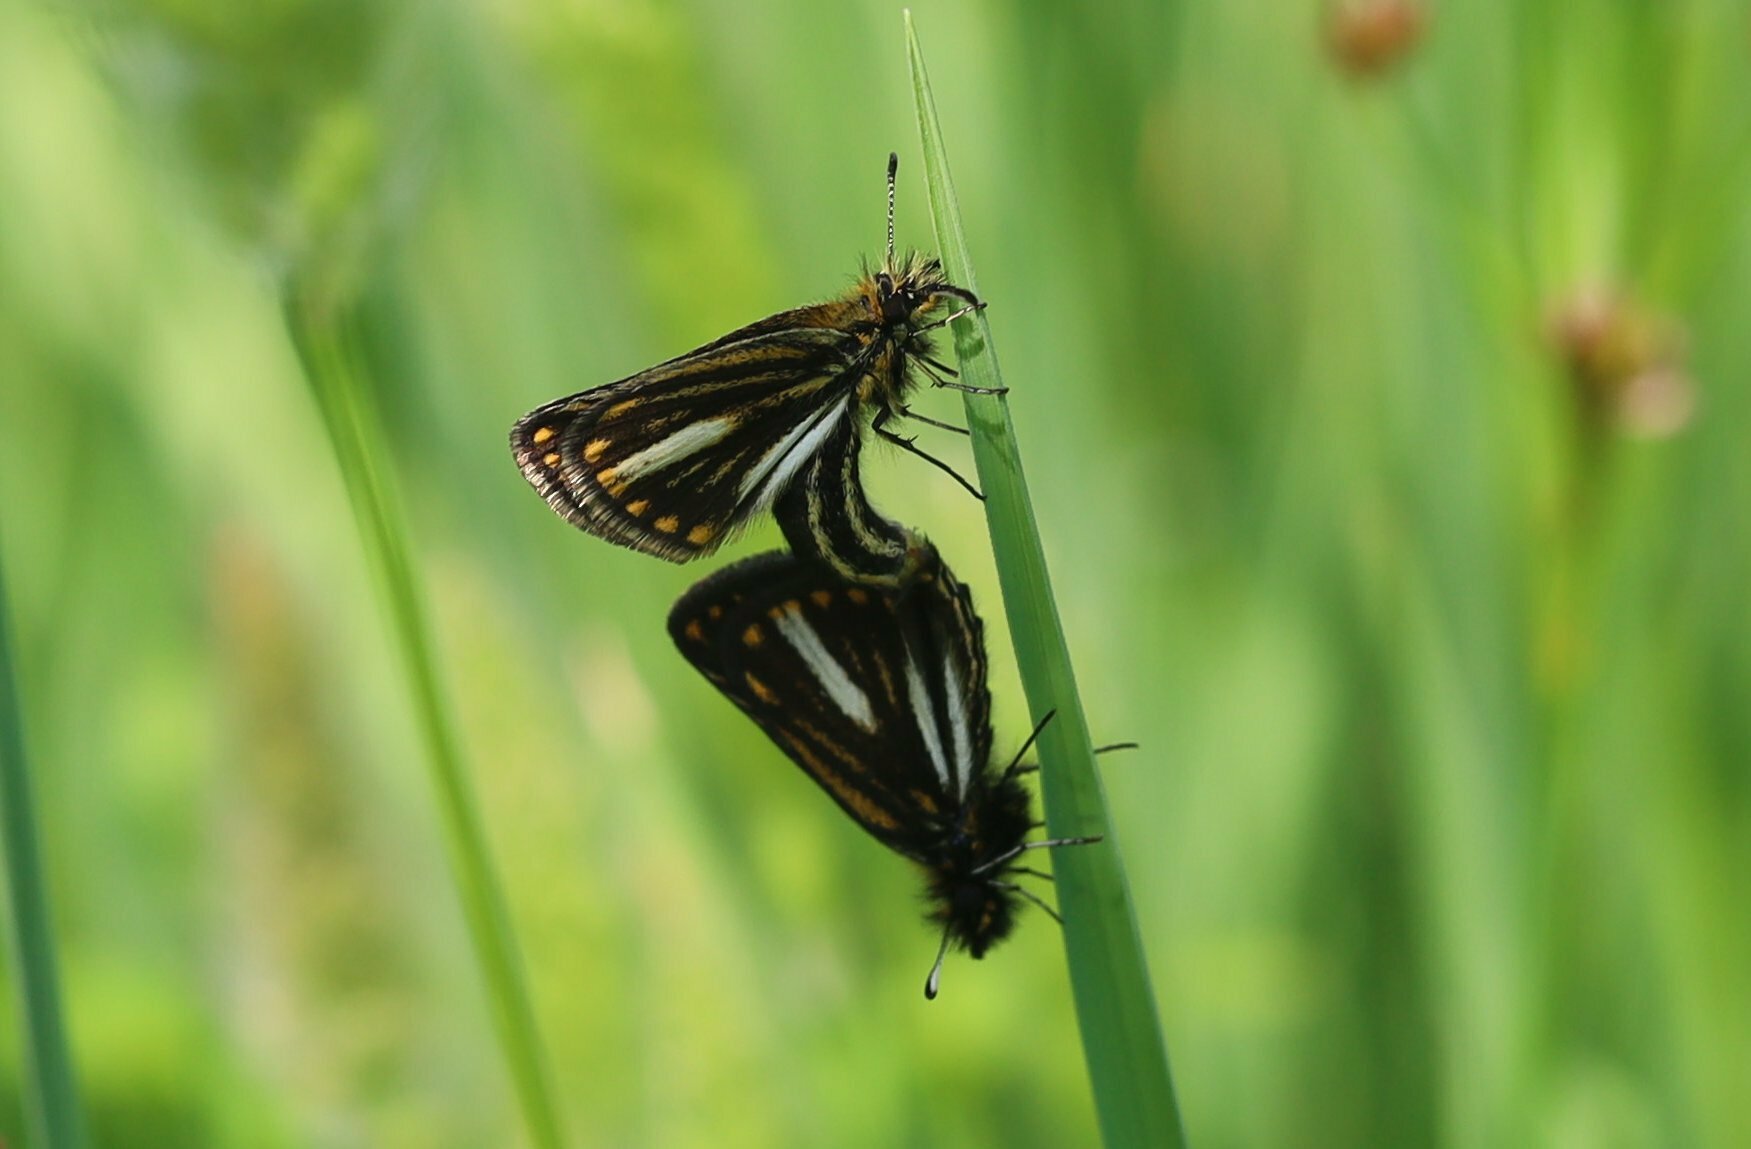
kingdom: Animalia
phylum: Arthropoda
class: Insecta
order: Lepidoptera
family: Hesperiidae
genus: Metisella
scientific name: Metisella meninx
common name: Marsh sylph
